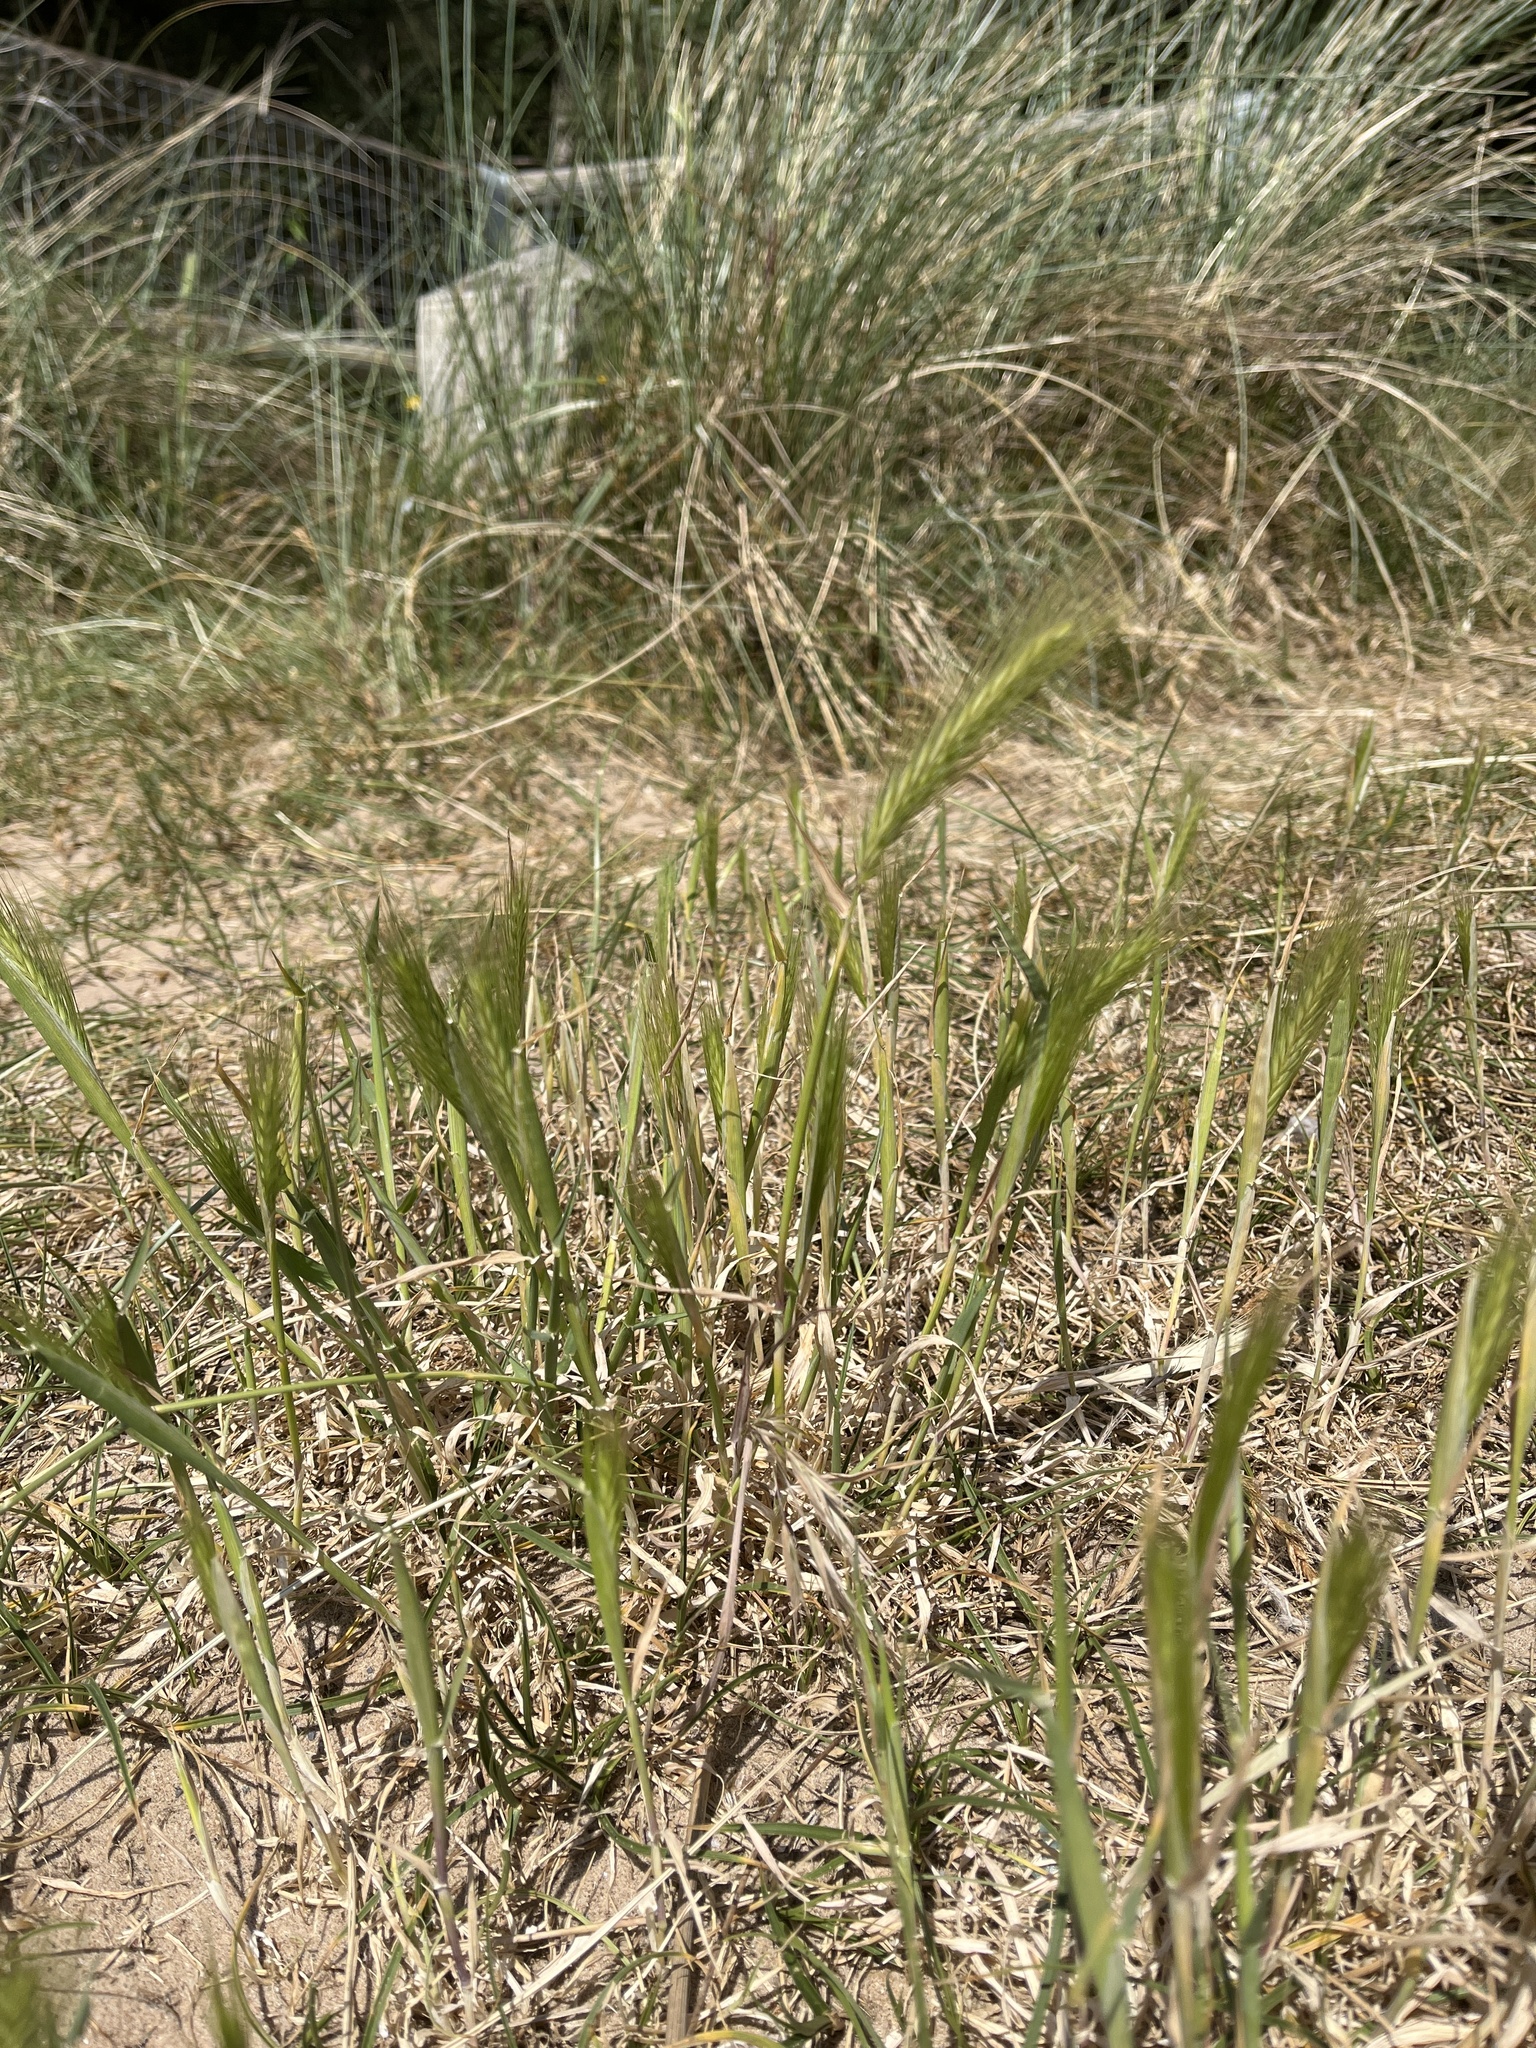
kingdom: Plantae
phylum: Tracheophyta
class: Liliopsida
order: Poales
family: Poaceae
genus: Hordeum
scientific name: Hordeum murinum
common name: Wall barley
